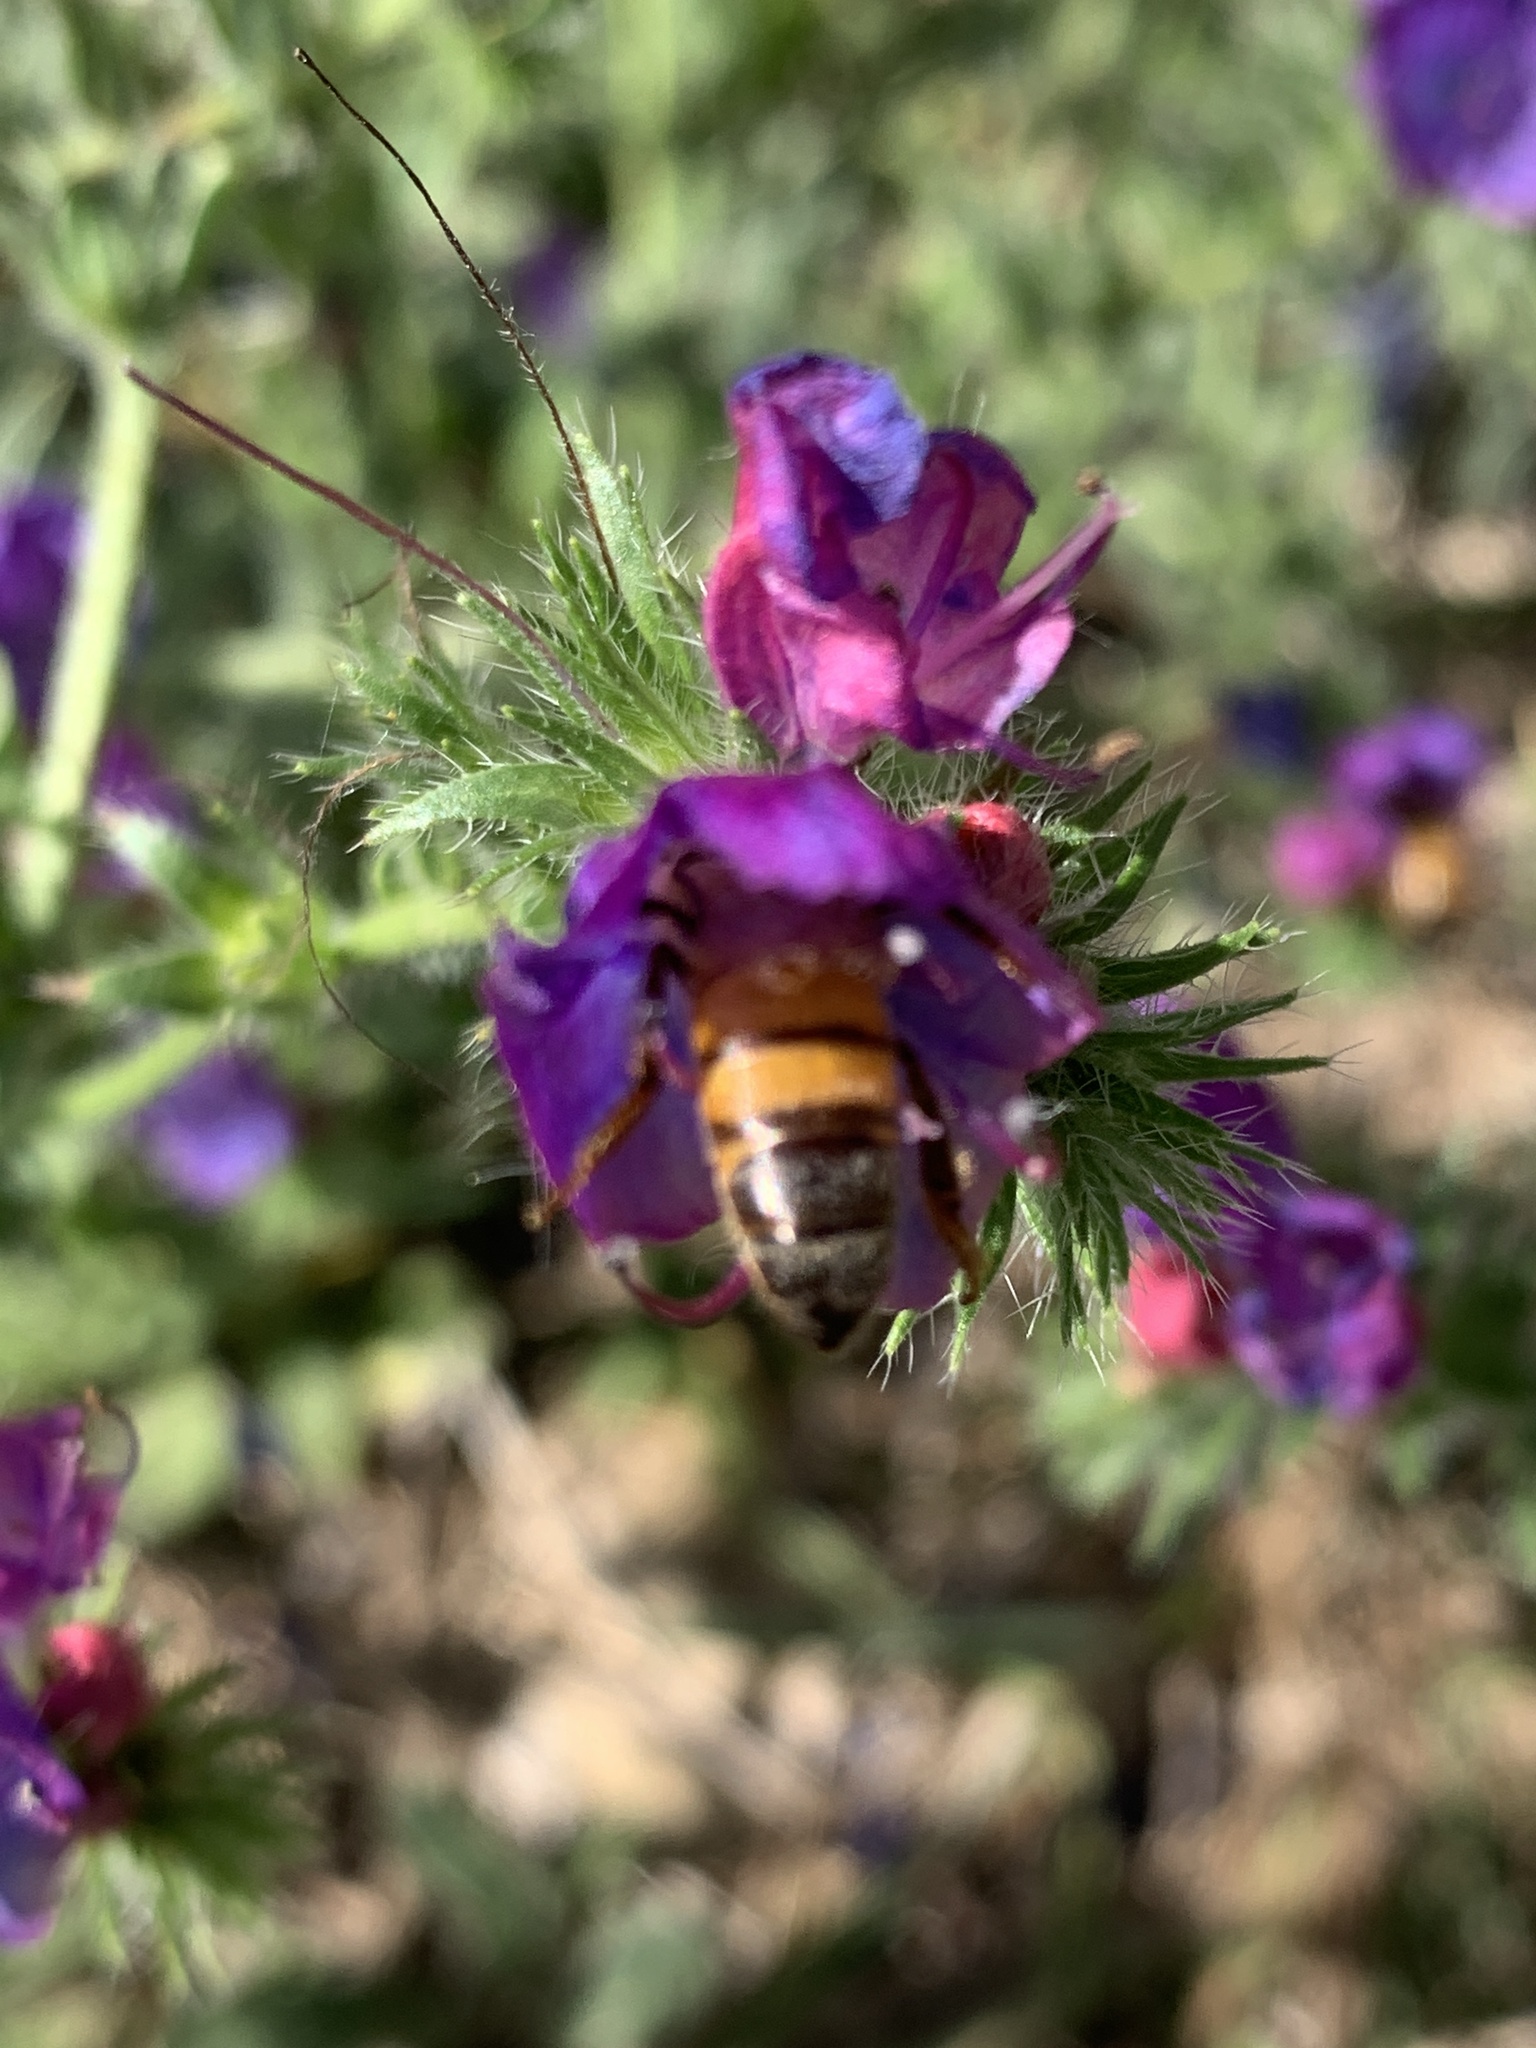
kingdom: Animalia
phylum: Arthropoda
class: Insecta
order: Hymenoptera
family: Apidae
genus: Apis
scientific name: Apis mellifera
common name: Honey bee
